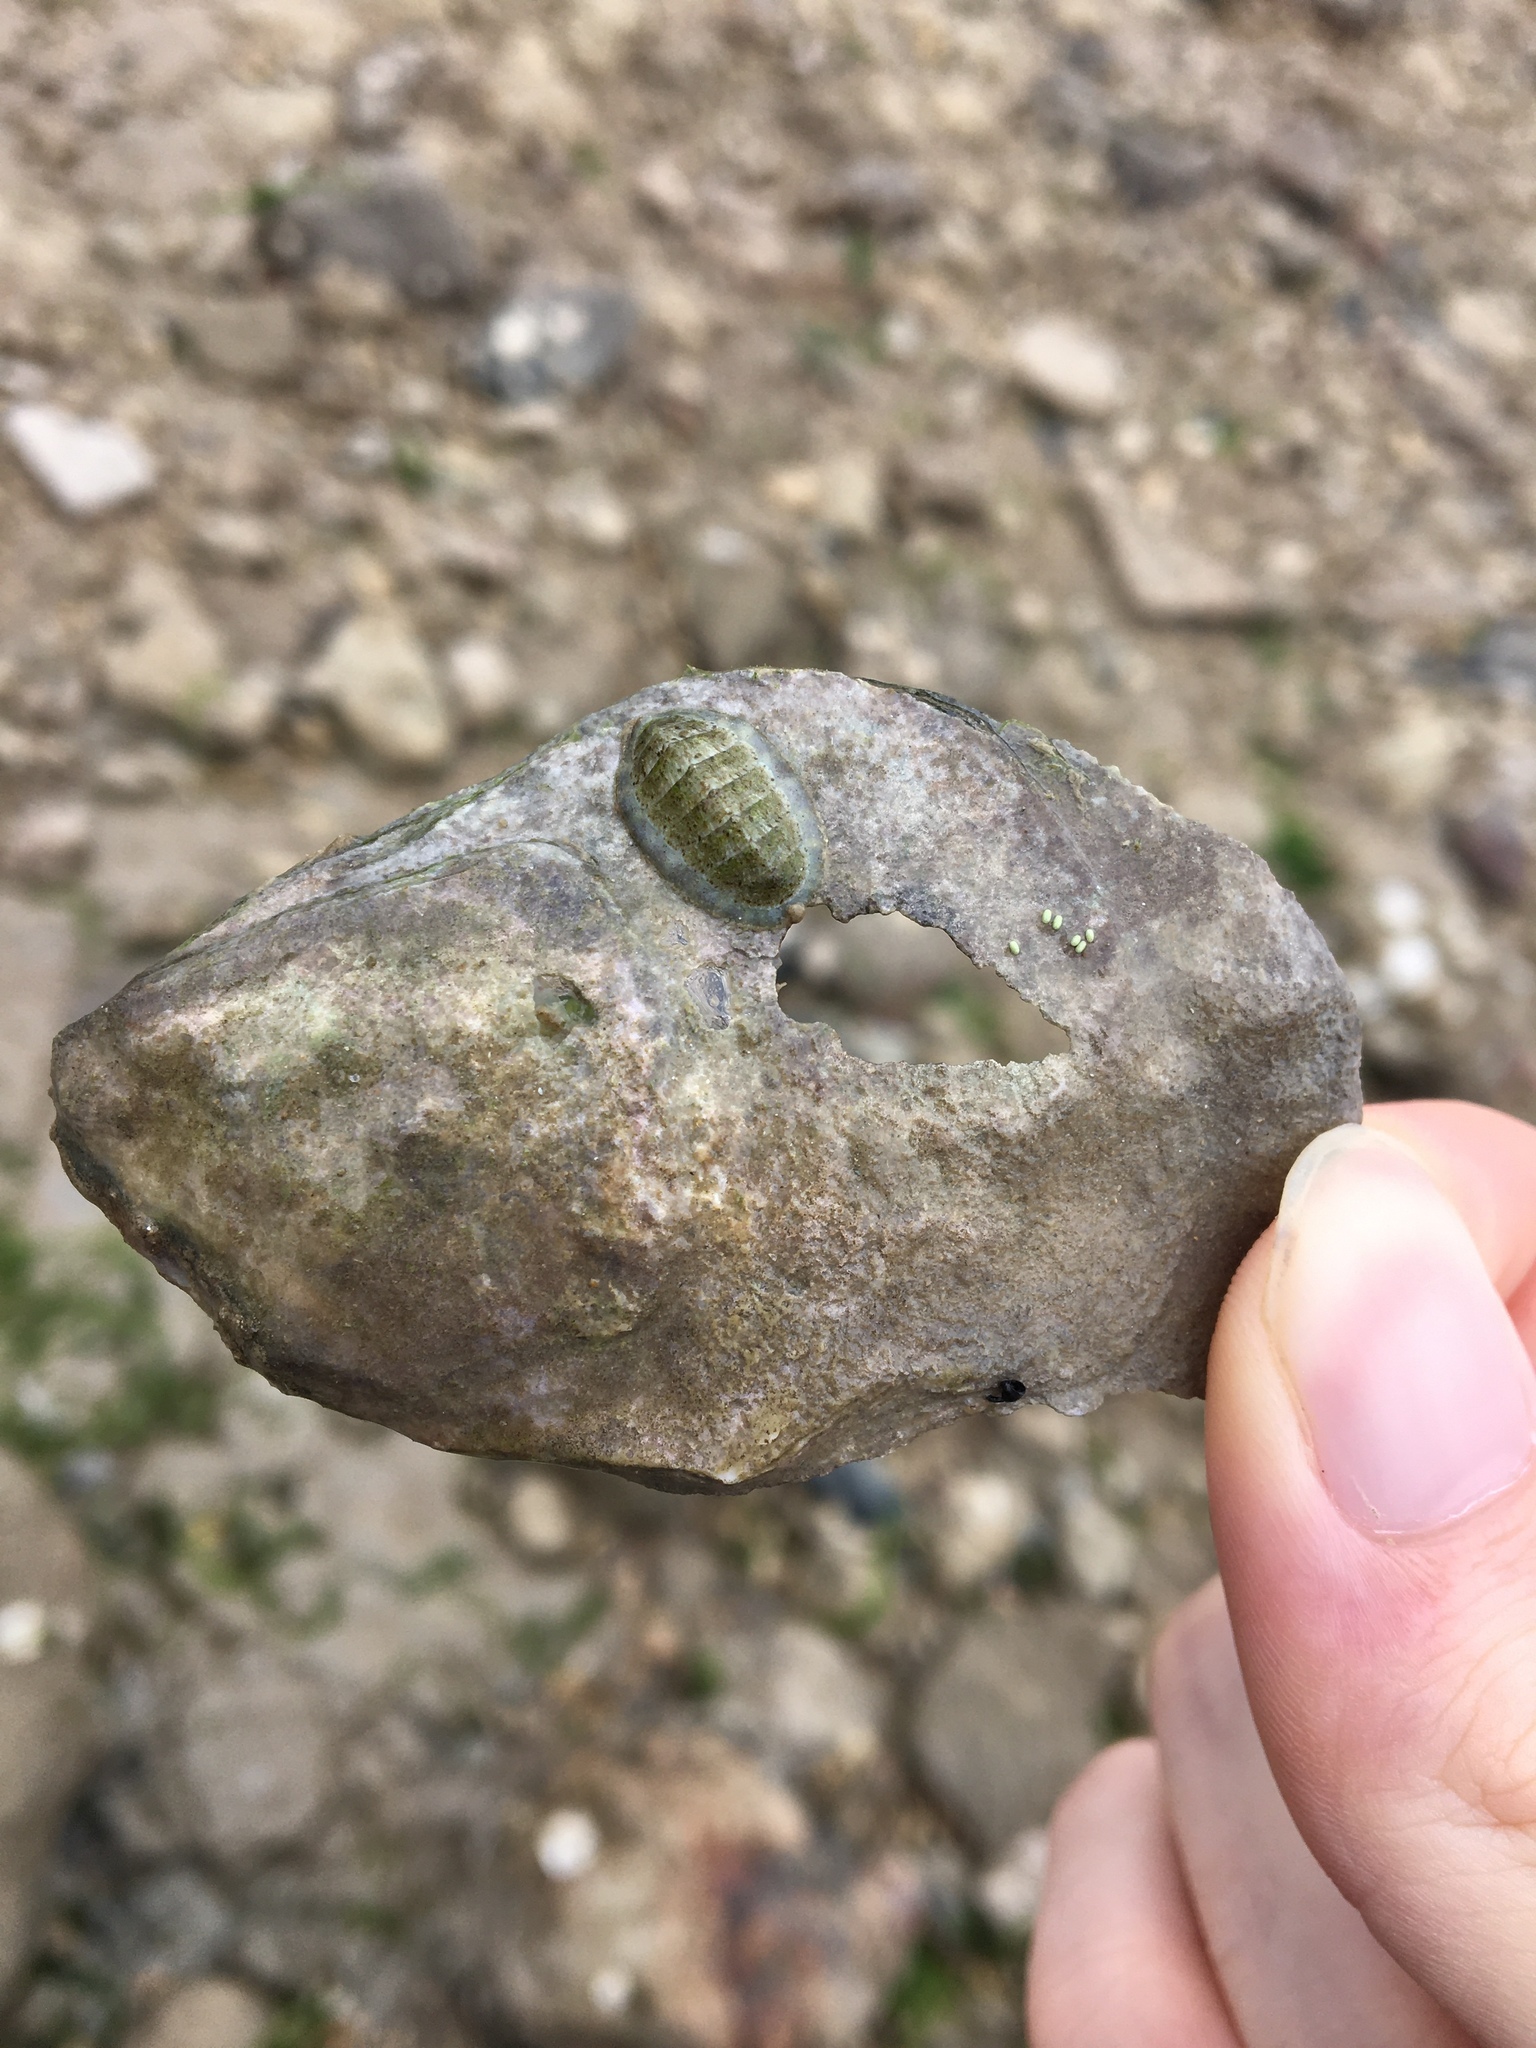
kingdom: Animalia
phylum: Mollusca
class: Polyplacophora
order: Chitonida
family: Tonicellidae
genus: Lepidochitona
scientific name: Lepidochitona cinerea
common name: Cinereous chiton
